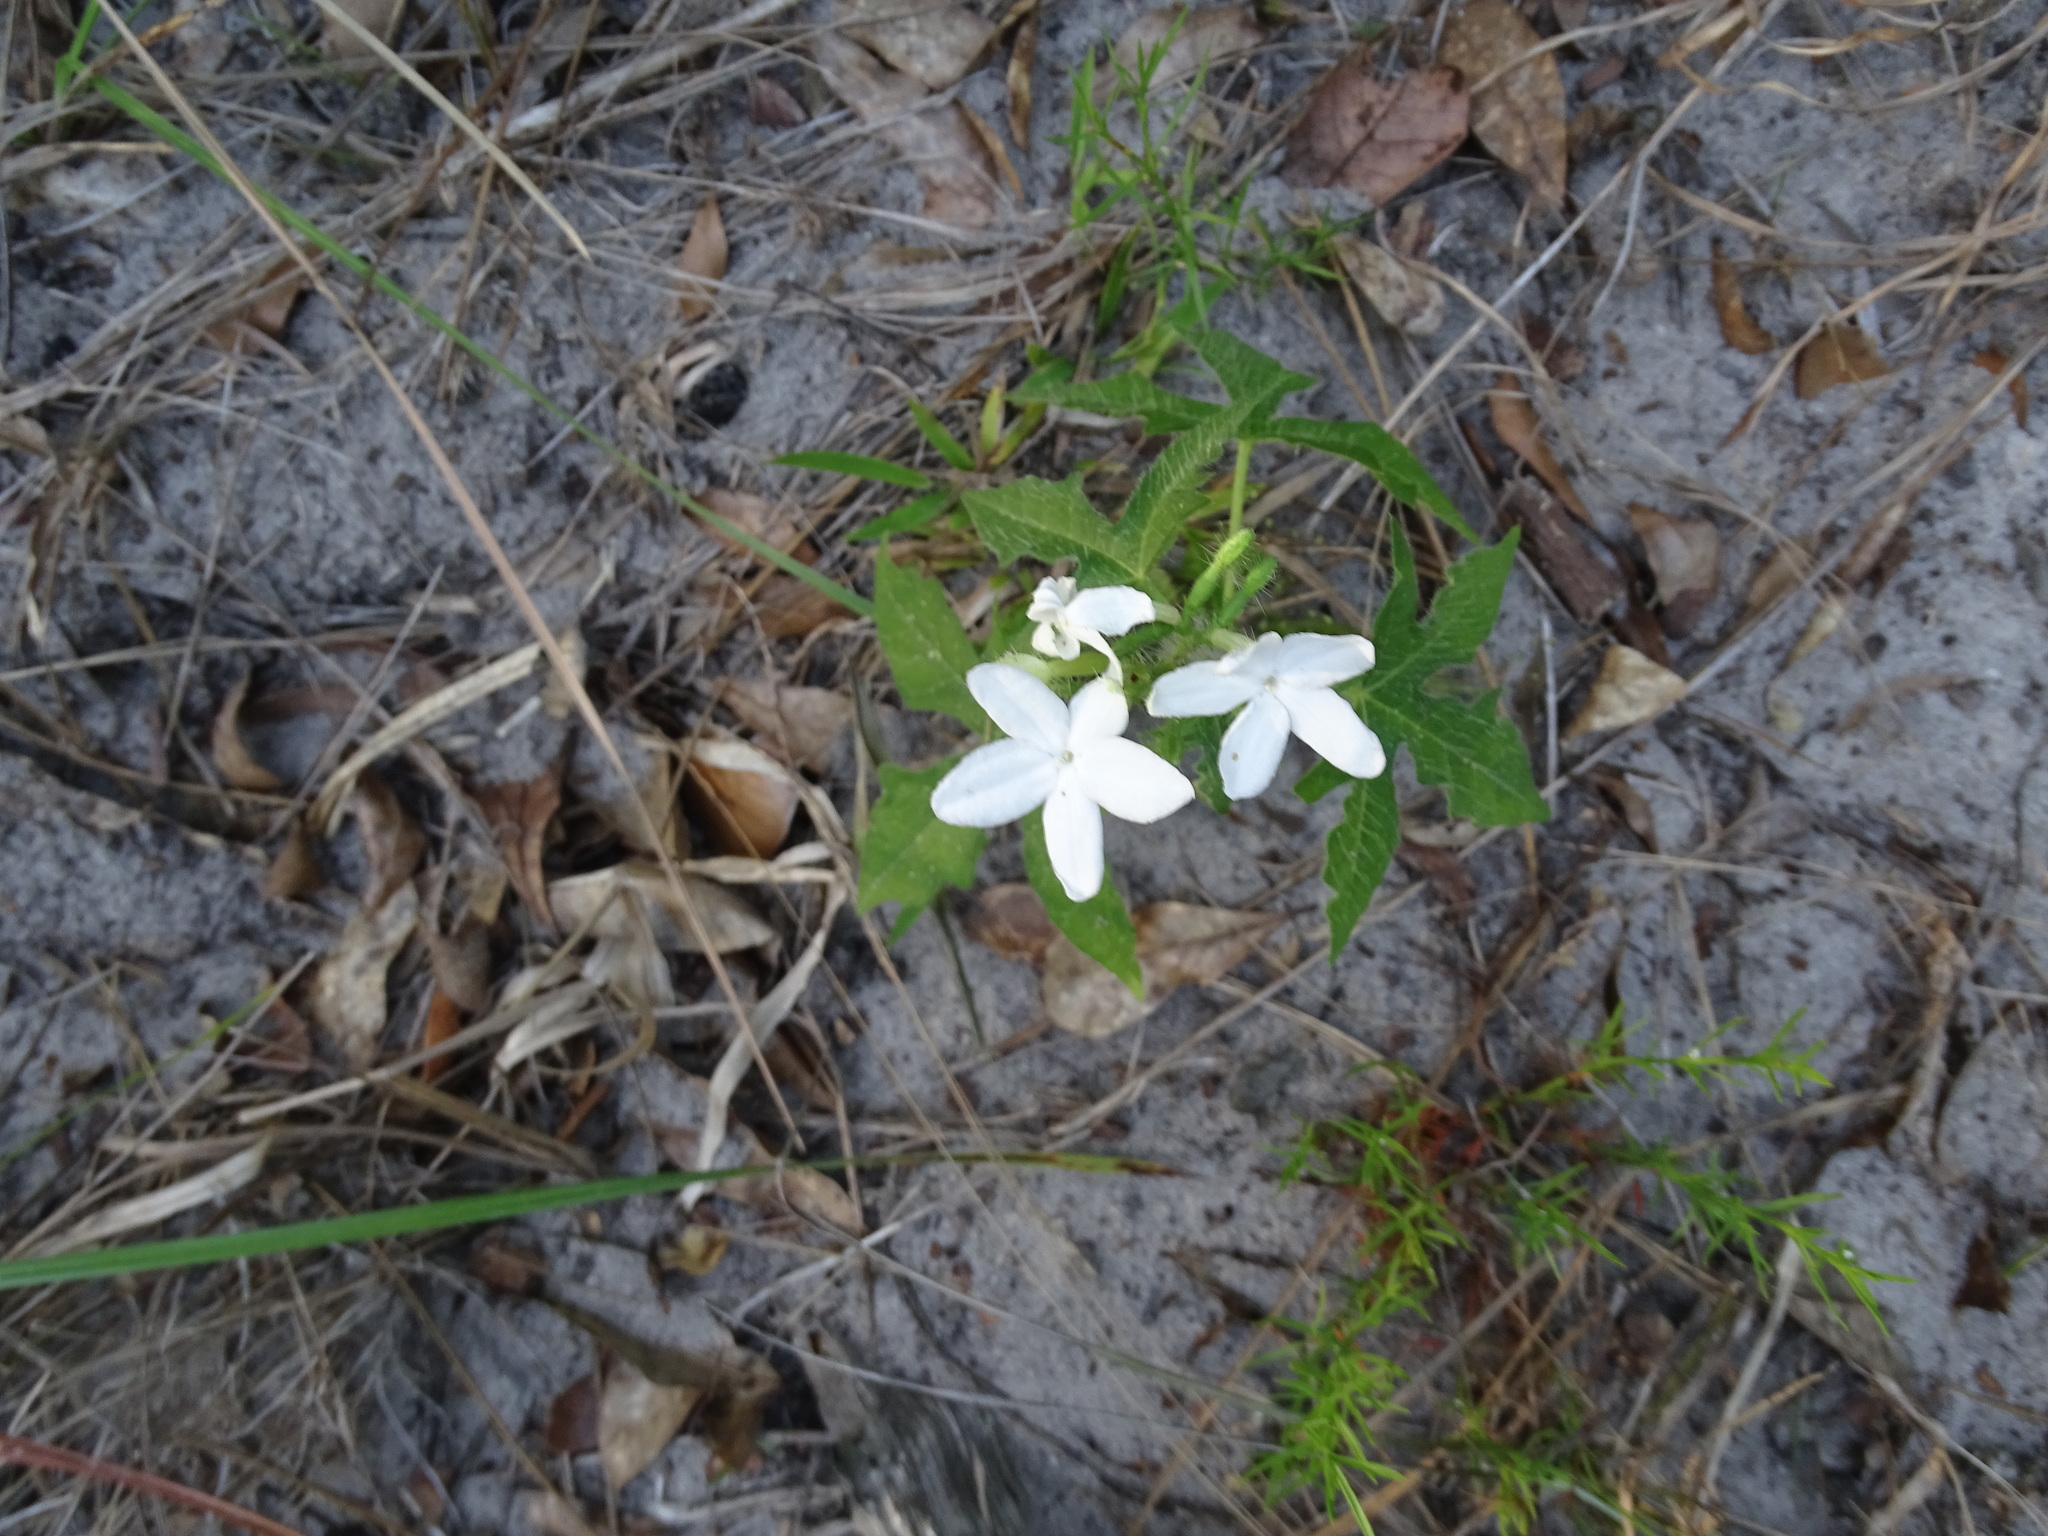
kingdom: Plantae
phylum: Tracheophyta
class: Magnoliopsida
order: Malpighiales
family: Euphorbiaceae
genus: Cnidoscolus
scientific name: Cnidoscolus stimulosus
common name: Bull-nettle
